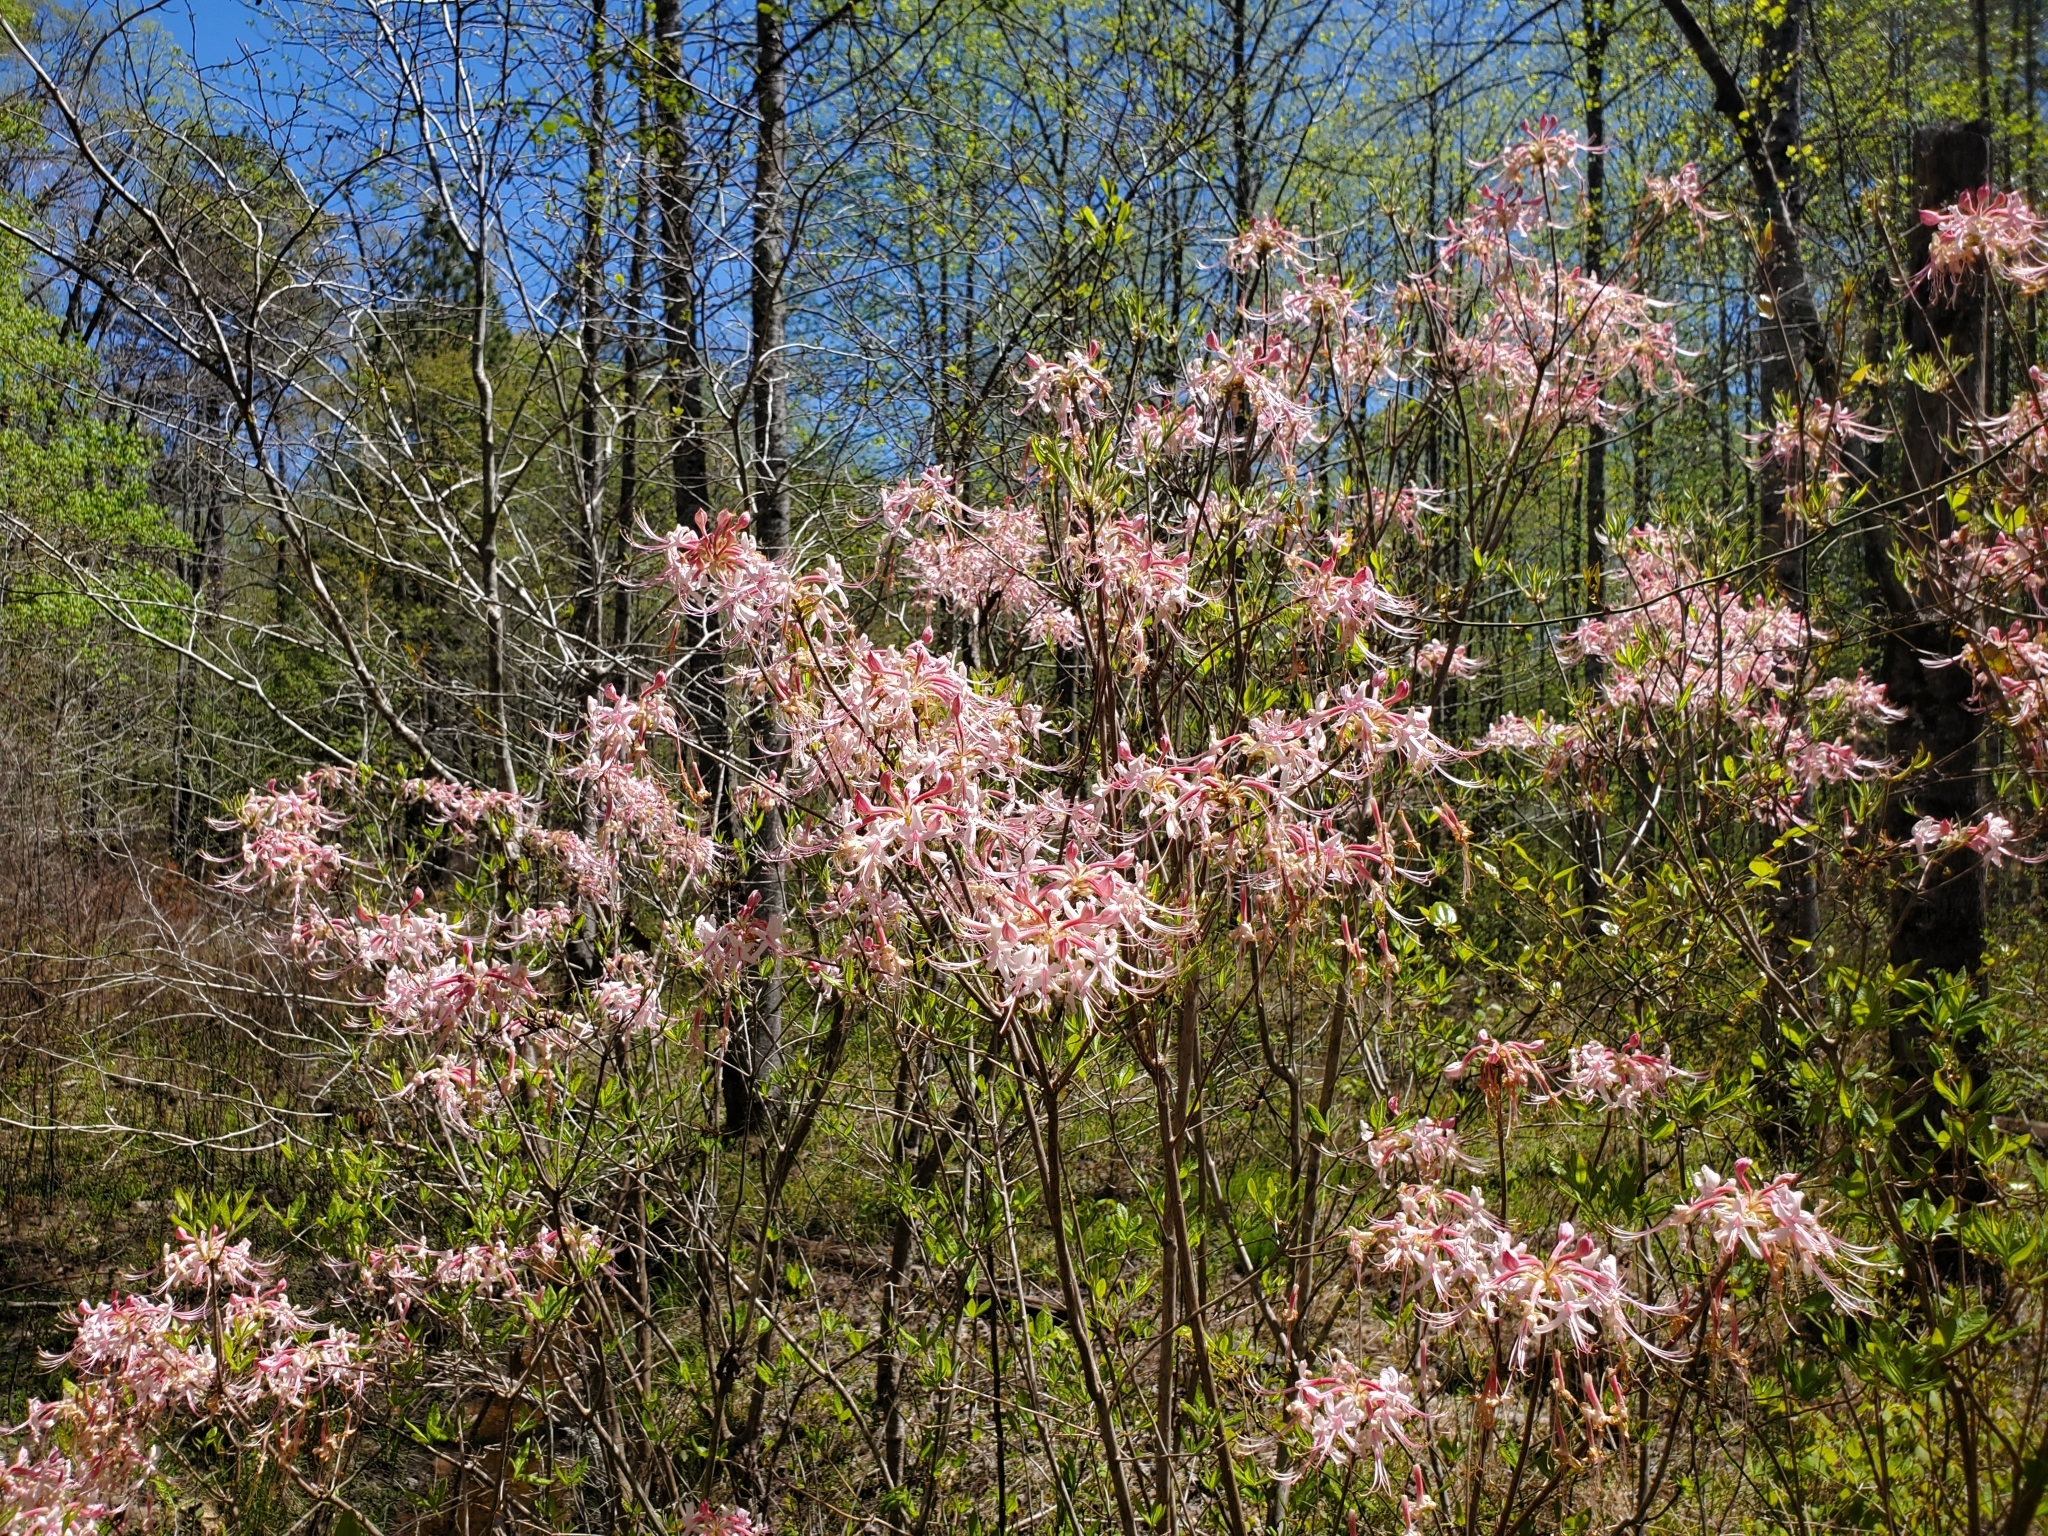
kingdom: Plantae
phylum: Tracheophyta
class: Magnoliopsida
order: Ericales
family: Ericaceae
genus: Rhododendron
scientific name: Rhododendron canescens
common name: Mountain azalea
